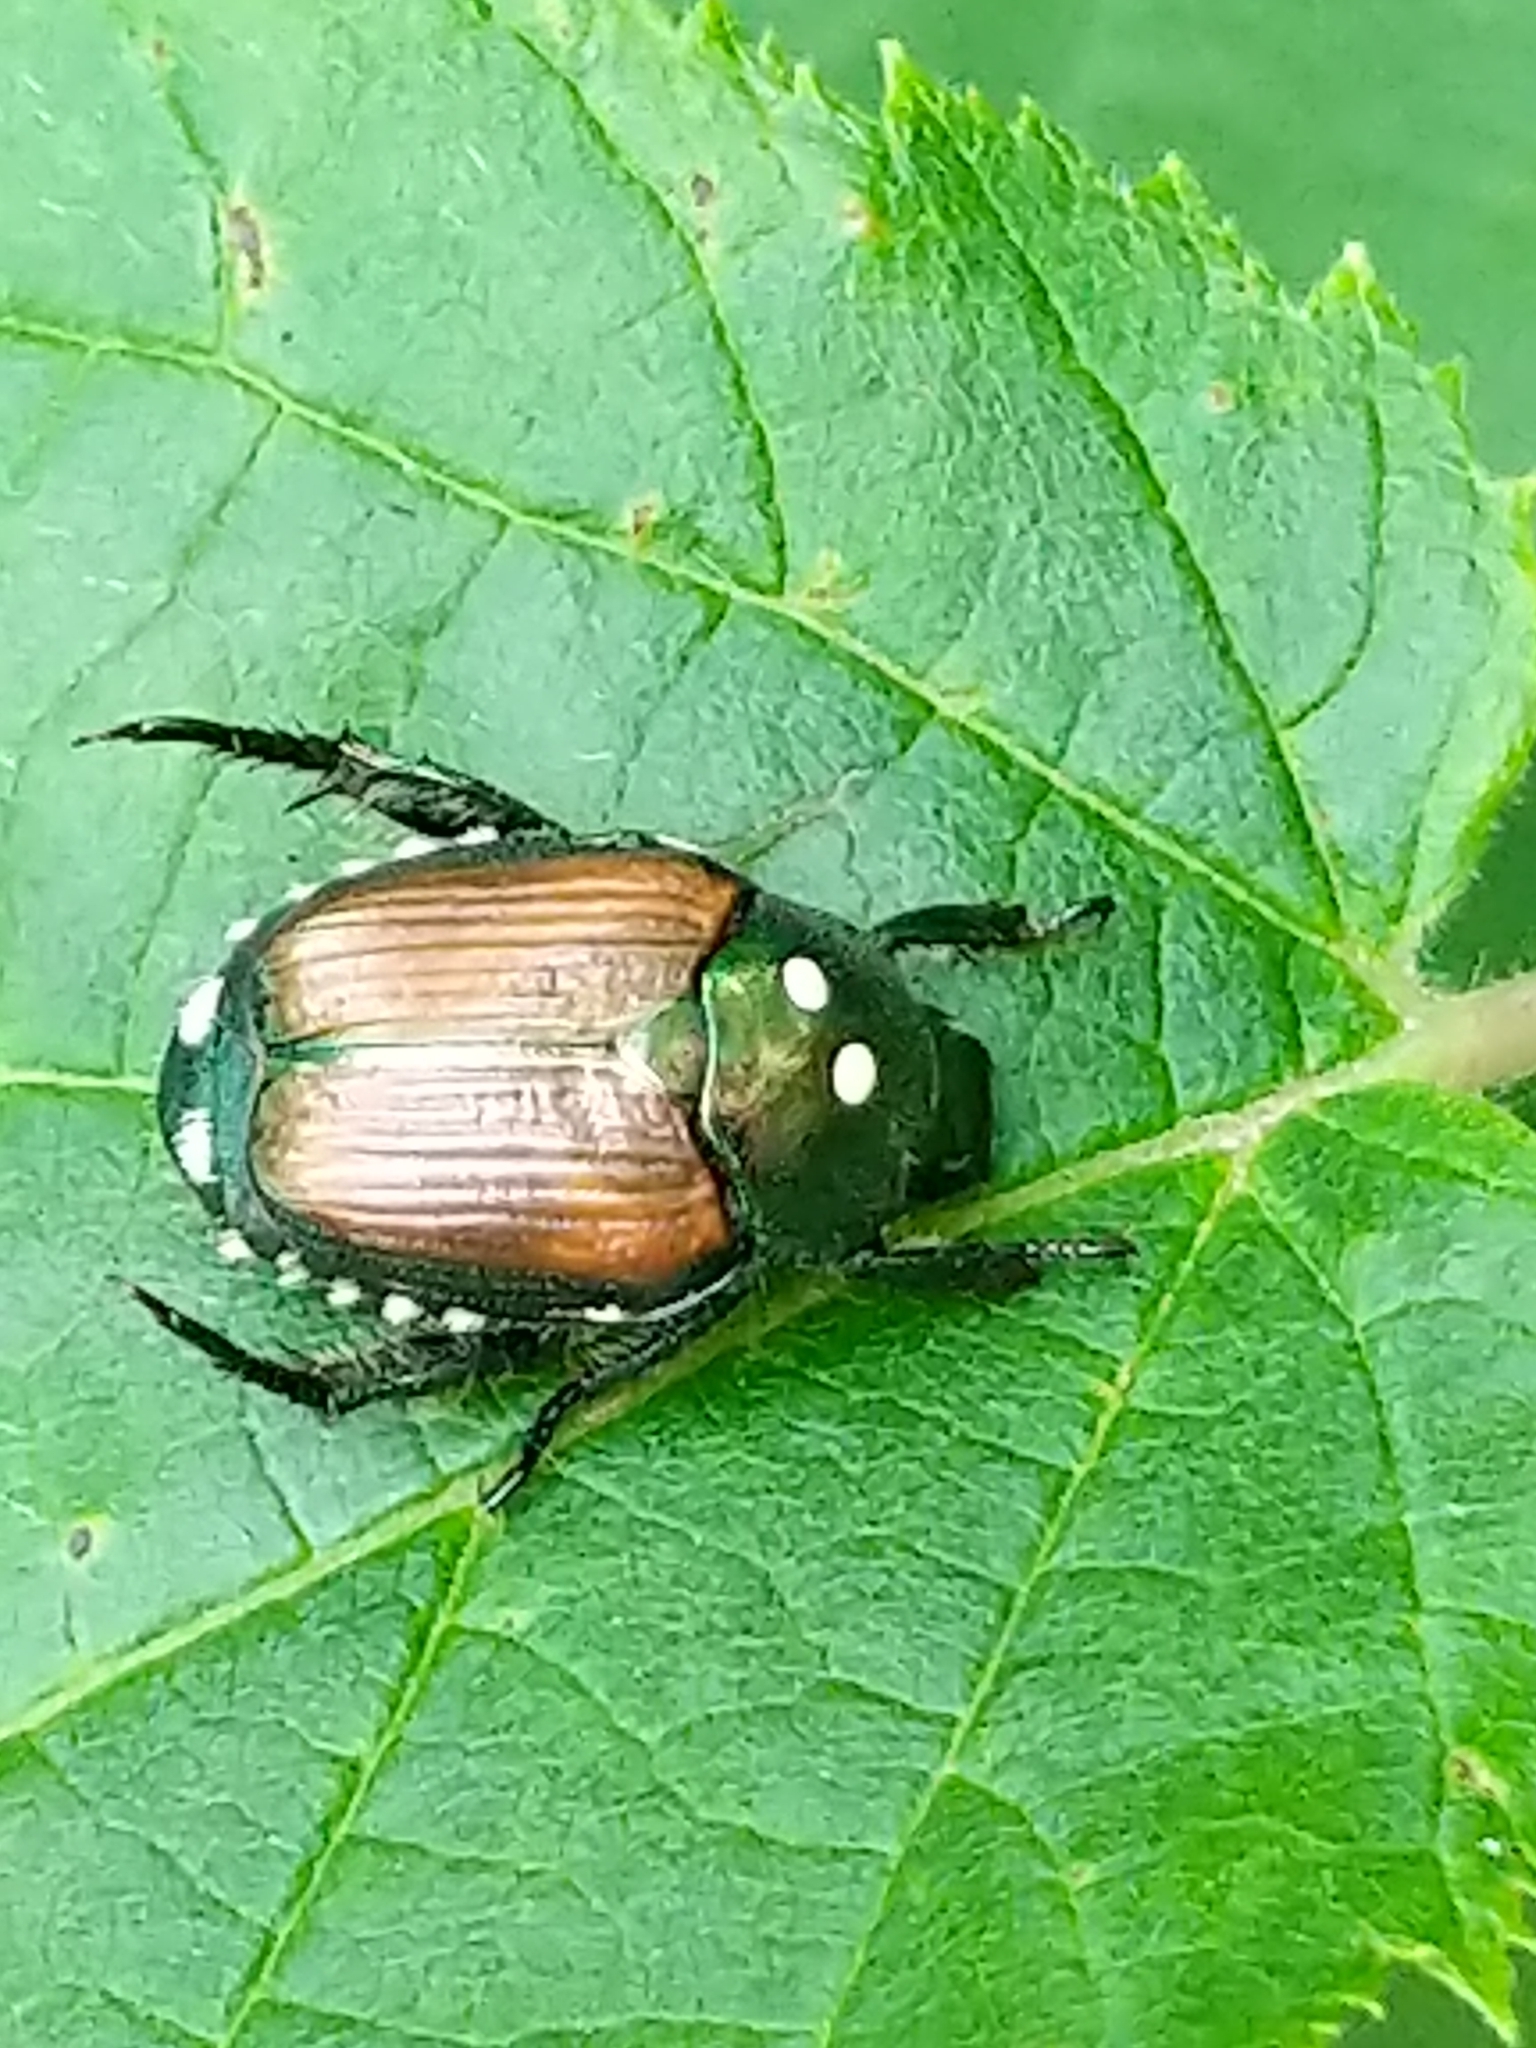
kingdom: Animalia
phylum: Arthropoda
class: Insecta
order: Diptera
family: Tachinidae
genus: Istocheta
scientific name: Istocheta aldrichi
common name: Parasitic wasp
